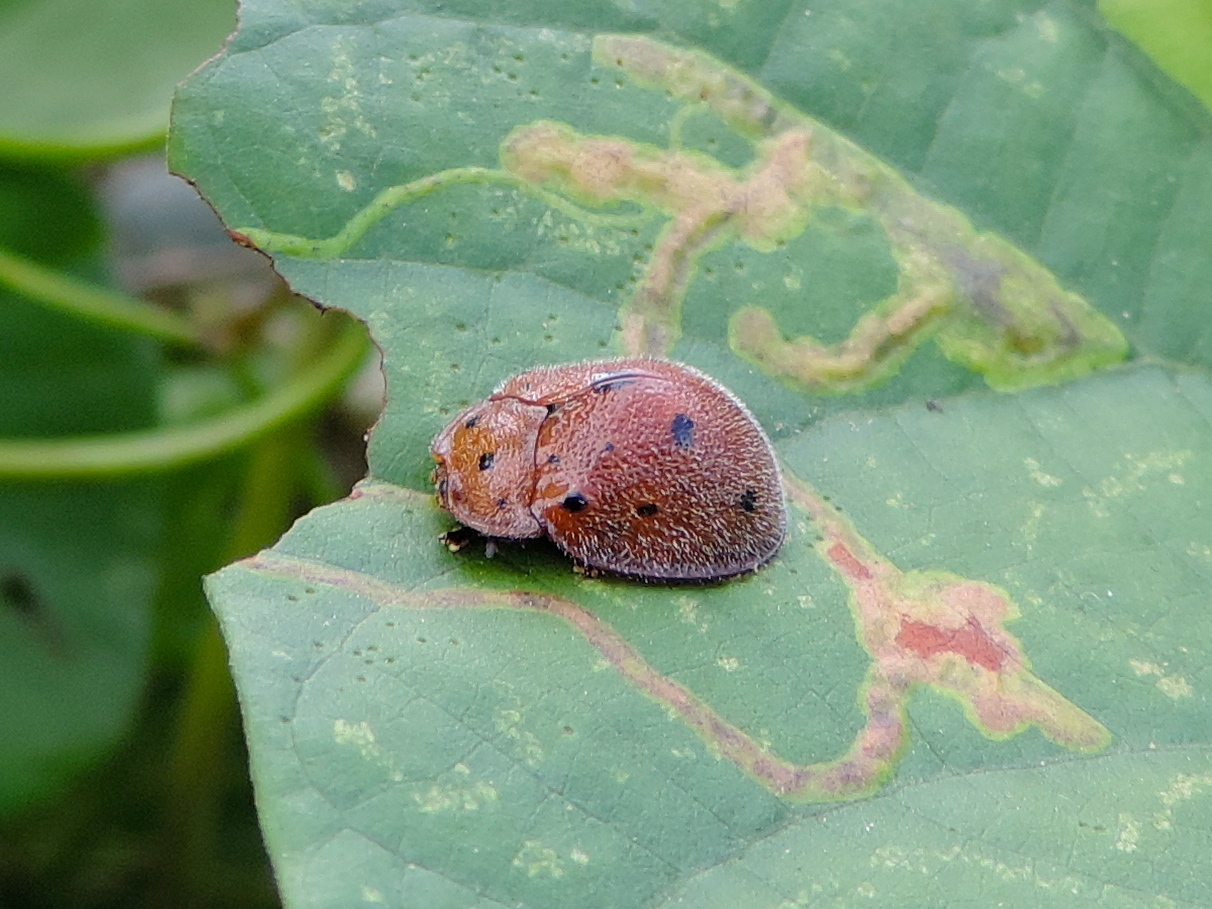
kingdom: Animalia
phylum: Arthropoda
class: Insecta
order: Coleoptera
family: Chrysomelidae
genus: Chelymorpha
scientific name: Chelymorpha
